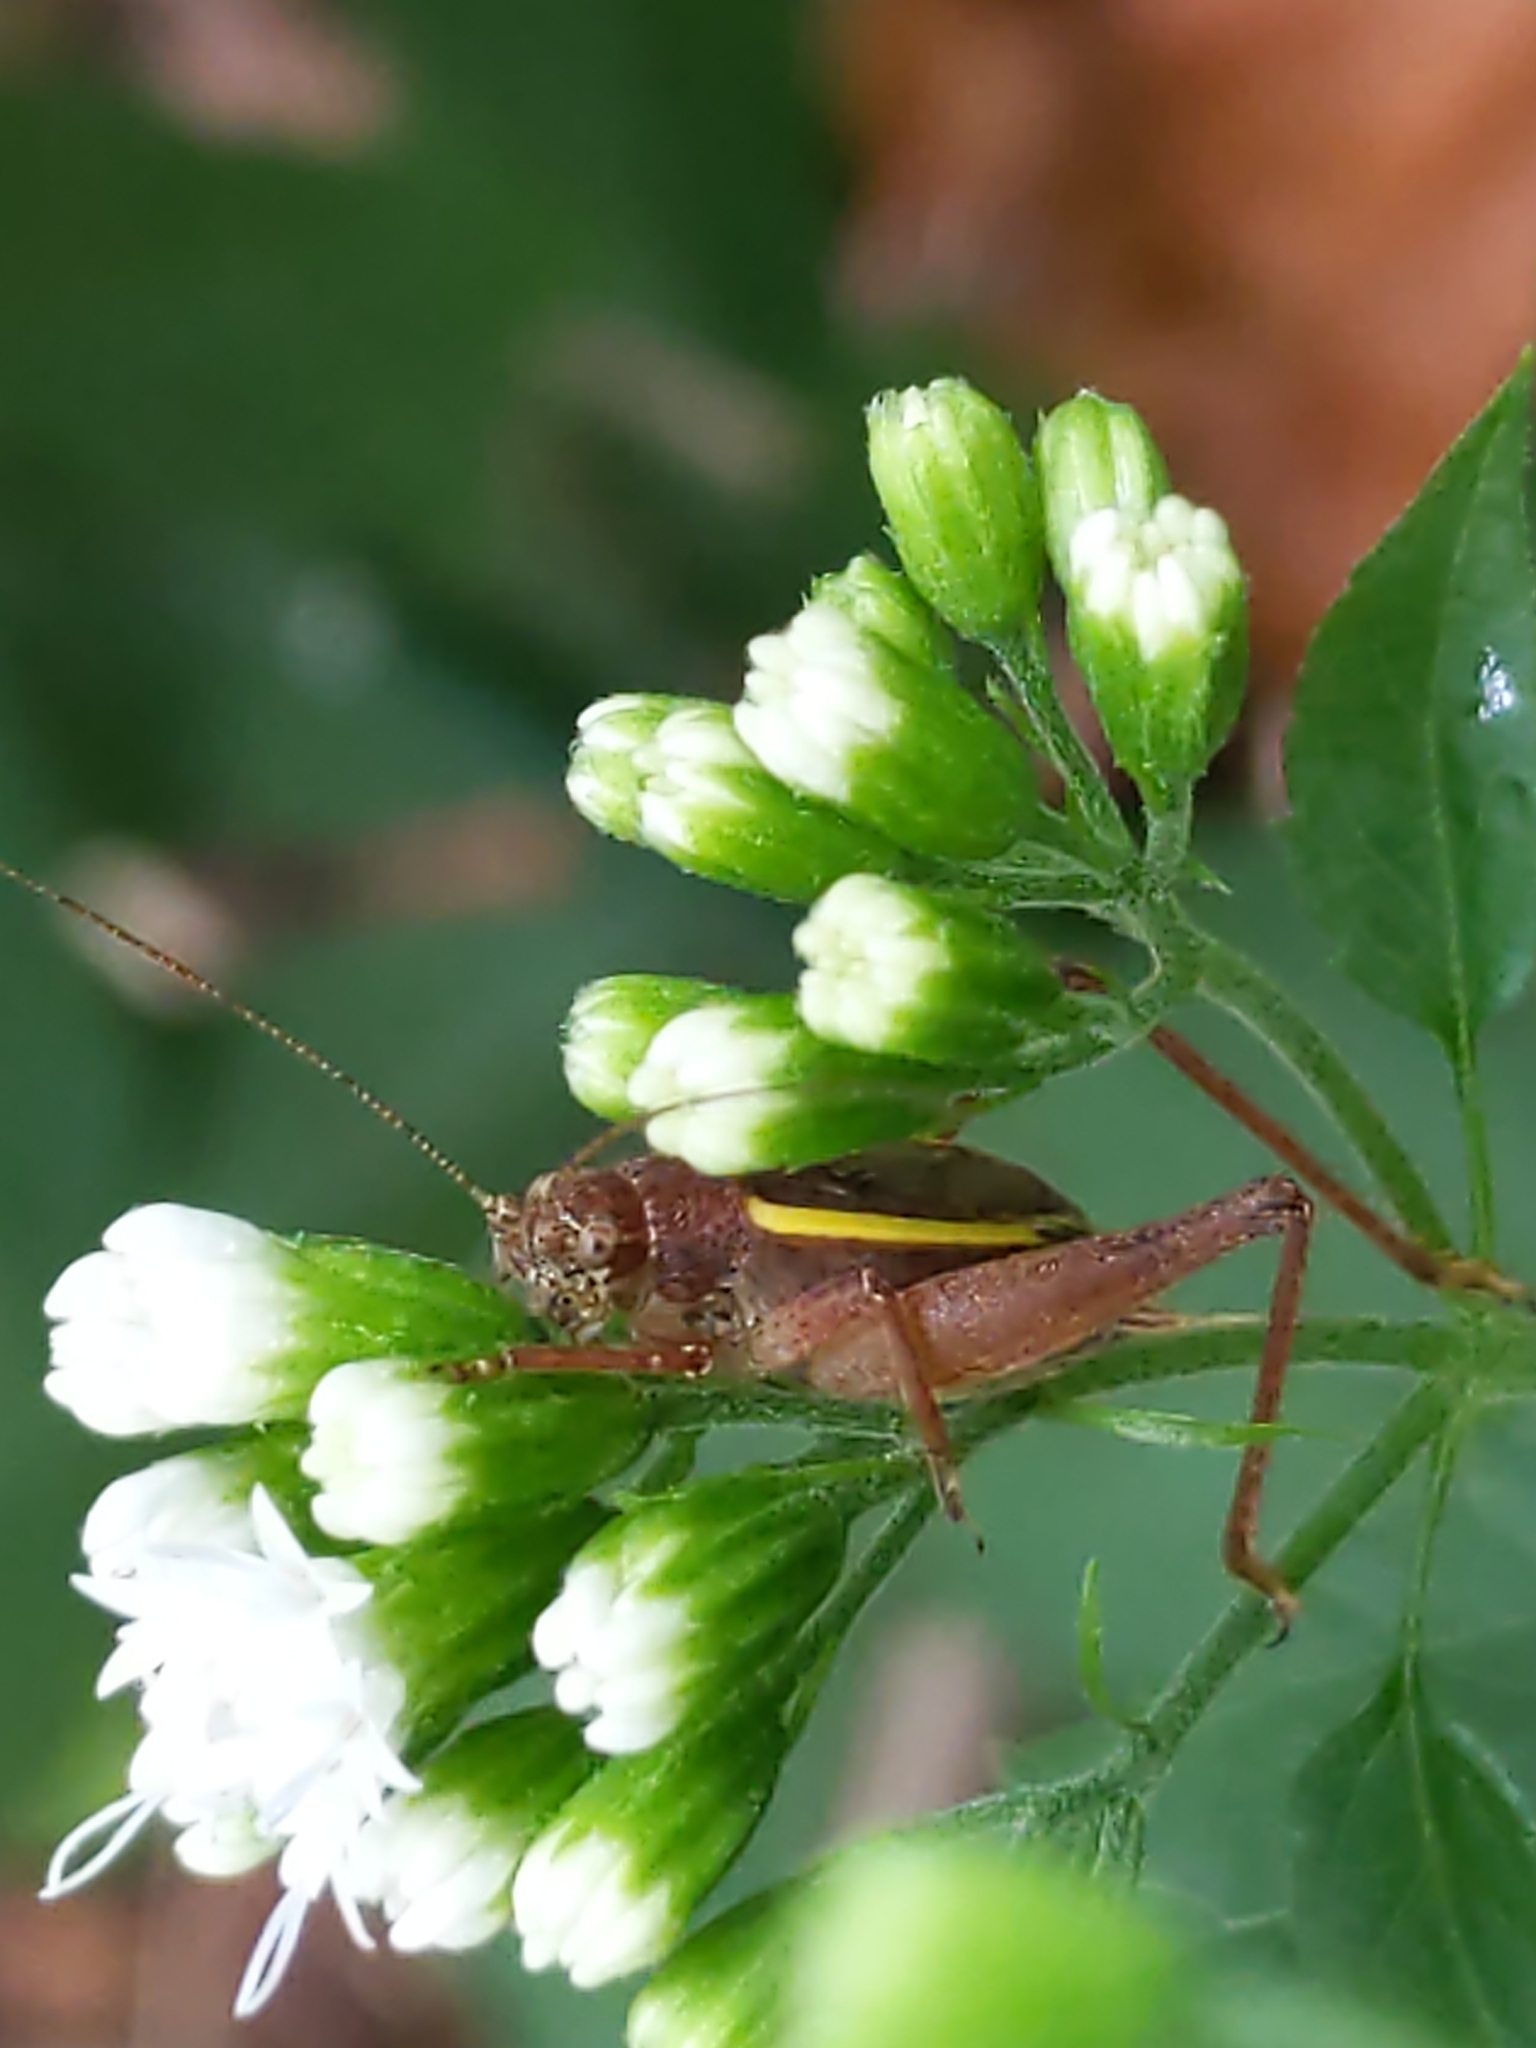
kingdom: Animalia
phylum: Arthropoda
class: Insecta
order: Orthoptera
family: Gryllidae
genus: Hapithus
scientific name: Hapithus agitator
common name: Restless bush cricket
